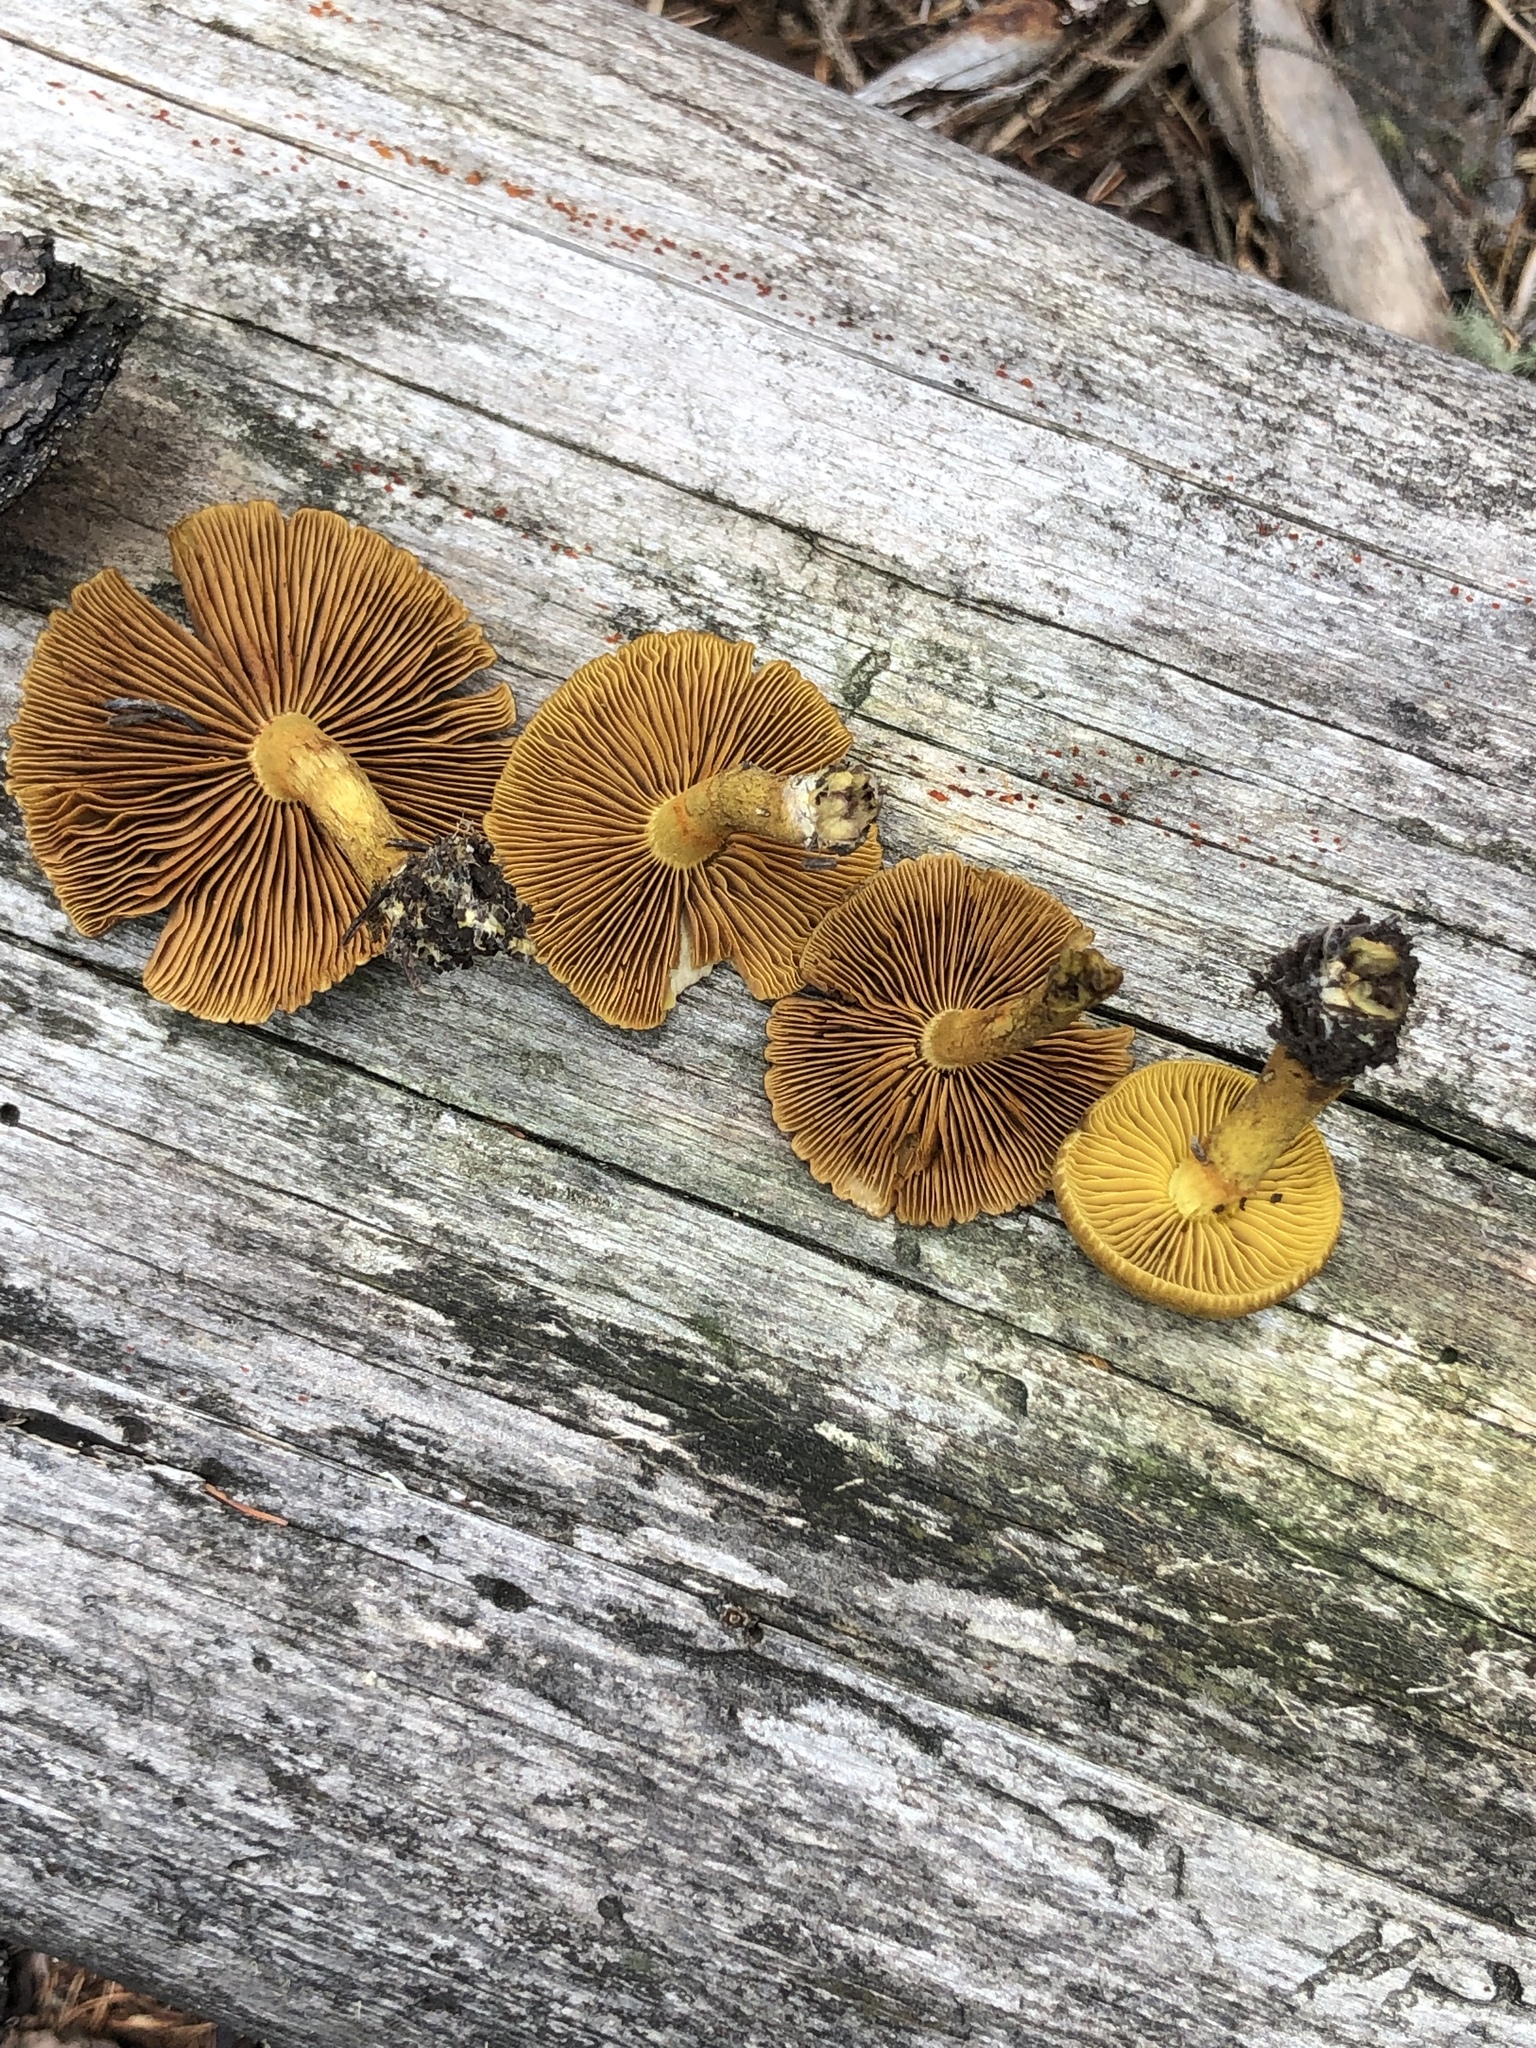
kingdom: Fungi
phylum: Basidiomycota
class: Agaricomycetes
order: Agaricales
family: Cortinariaceae
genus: Cortinarius
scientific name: Cortinarius rufulus
